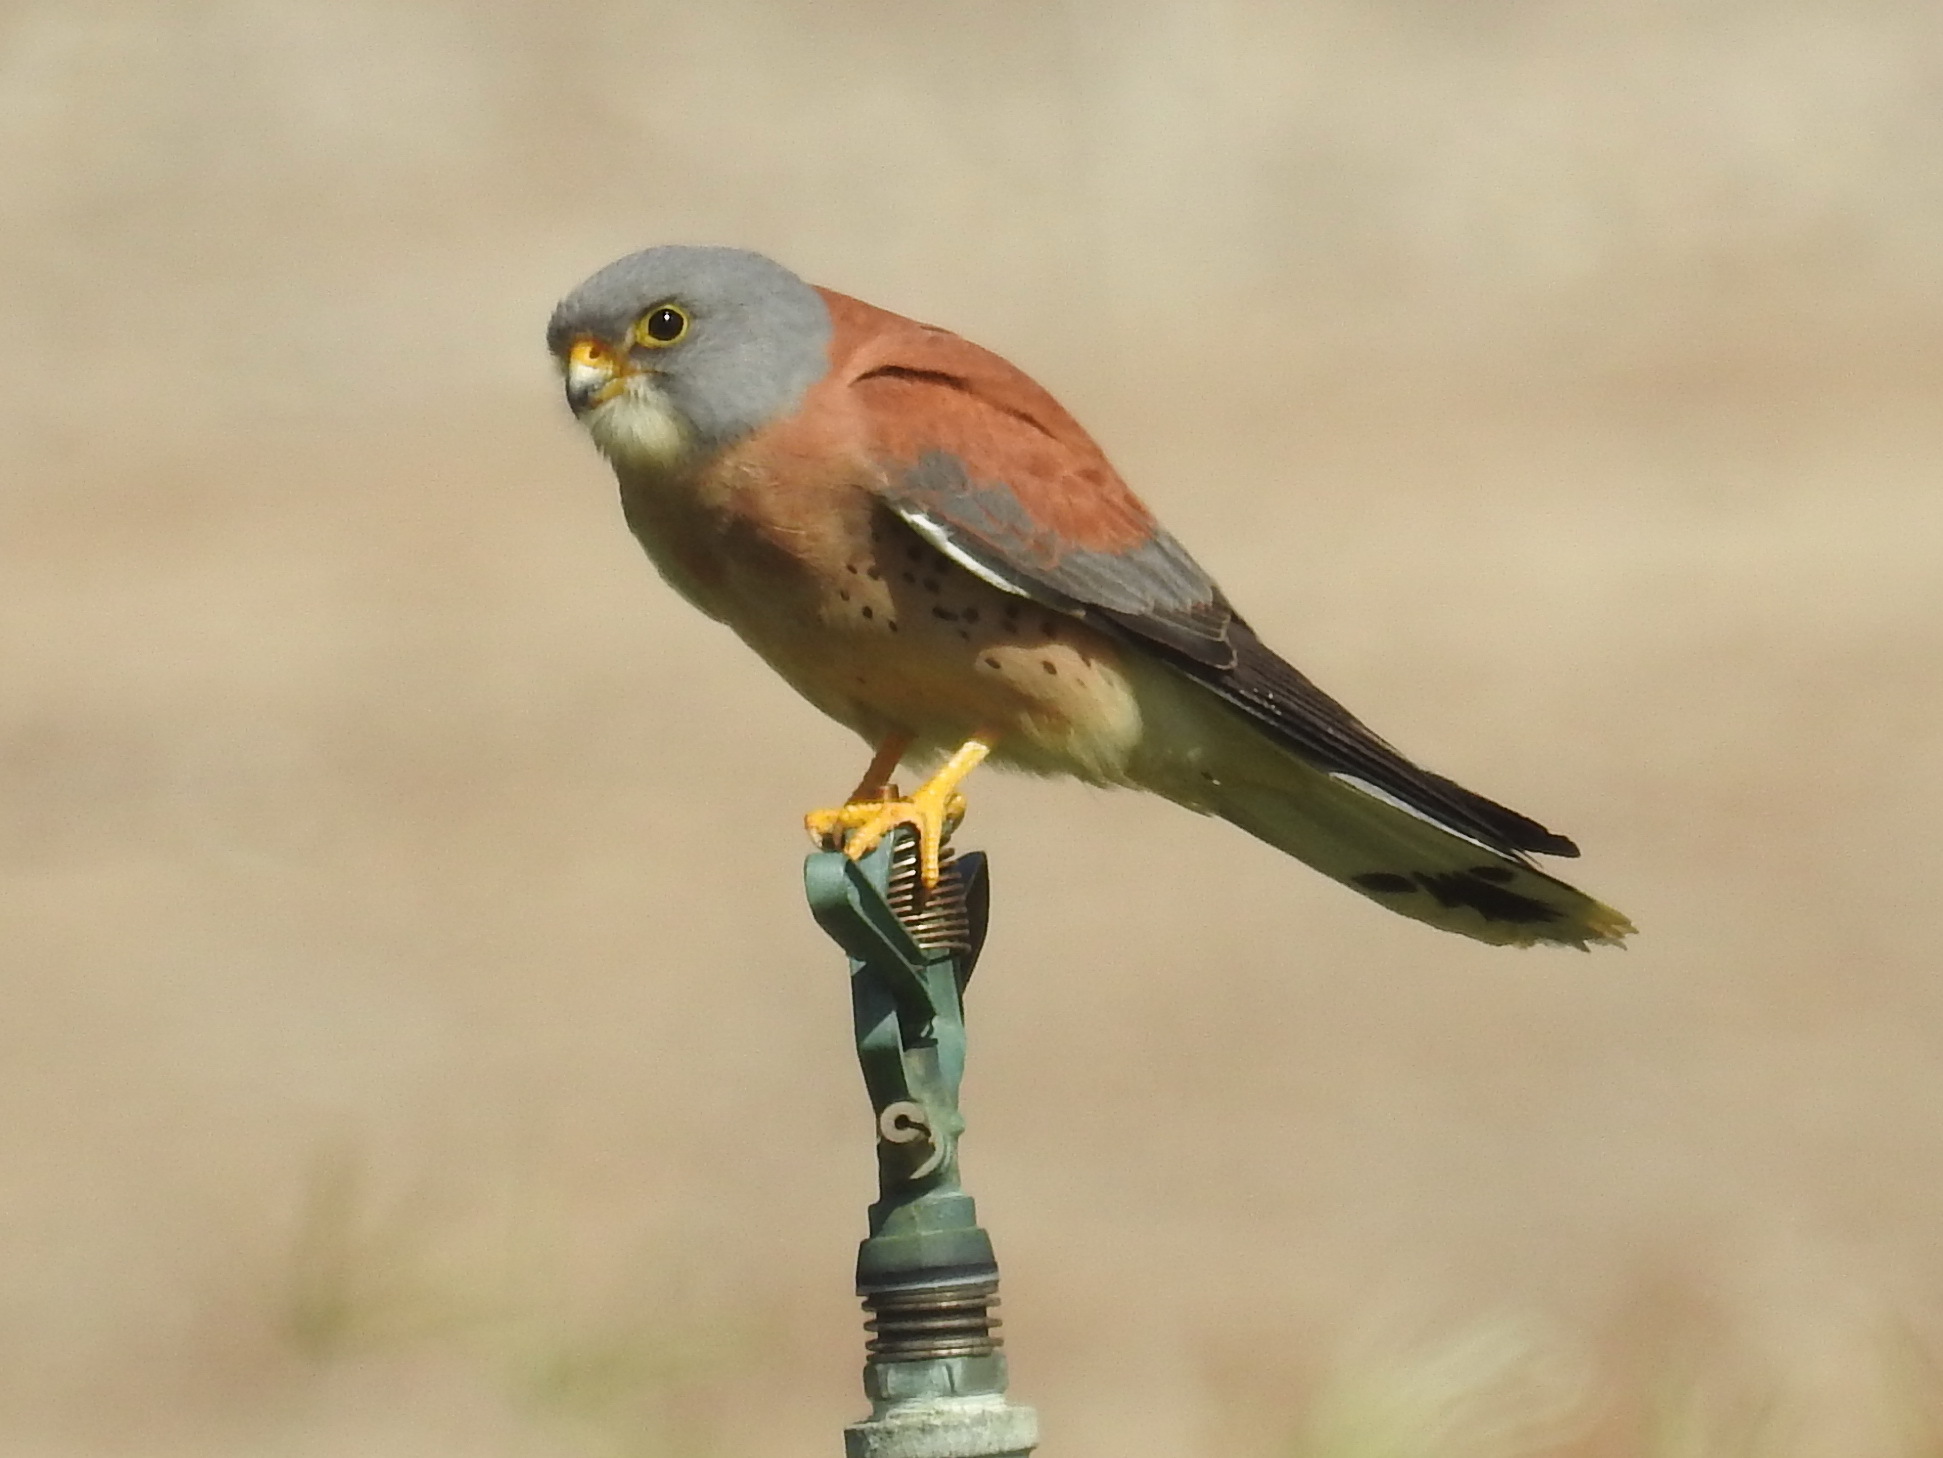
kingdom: Animalia
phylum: Chordata
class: Aves
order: Falconiformes
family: Falconidae
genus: Falco
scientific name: Falco naumanni
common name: Lesser kestrel
